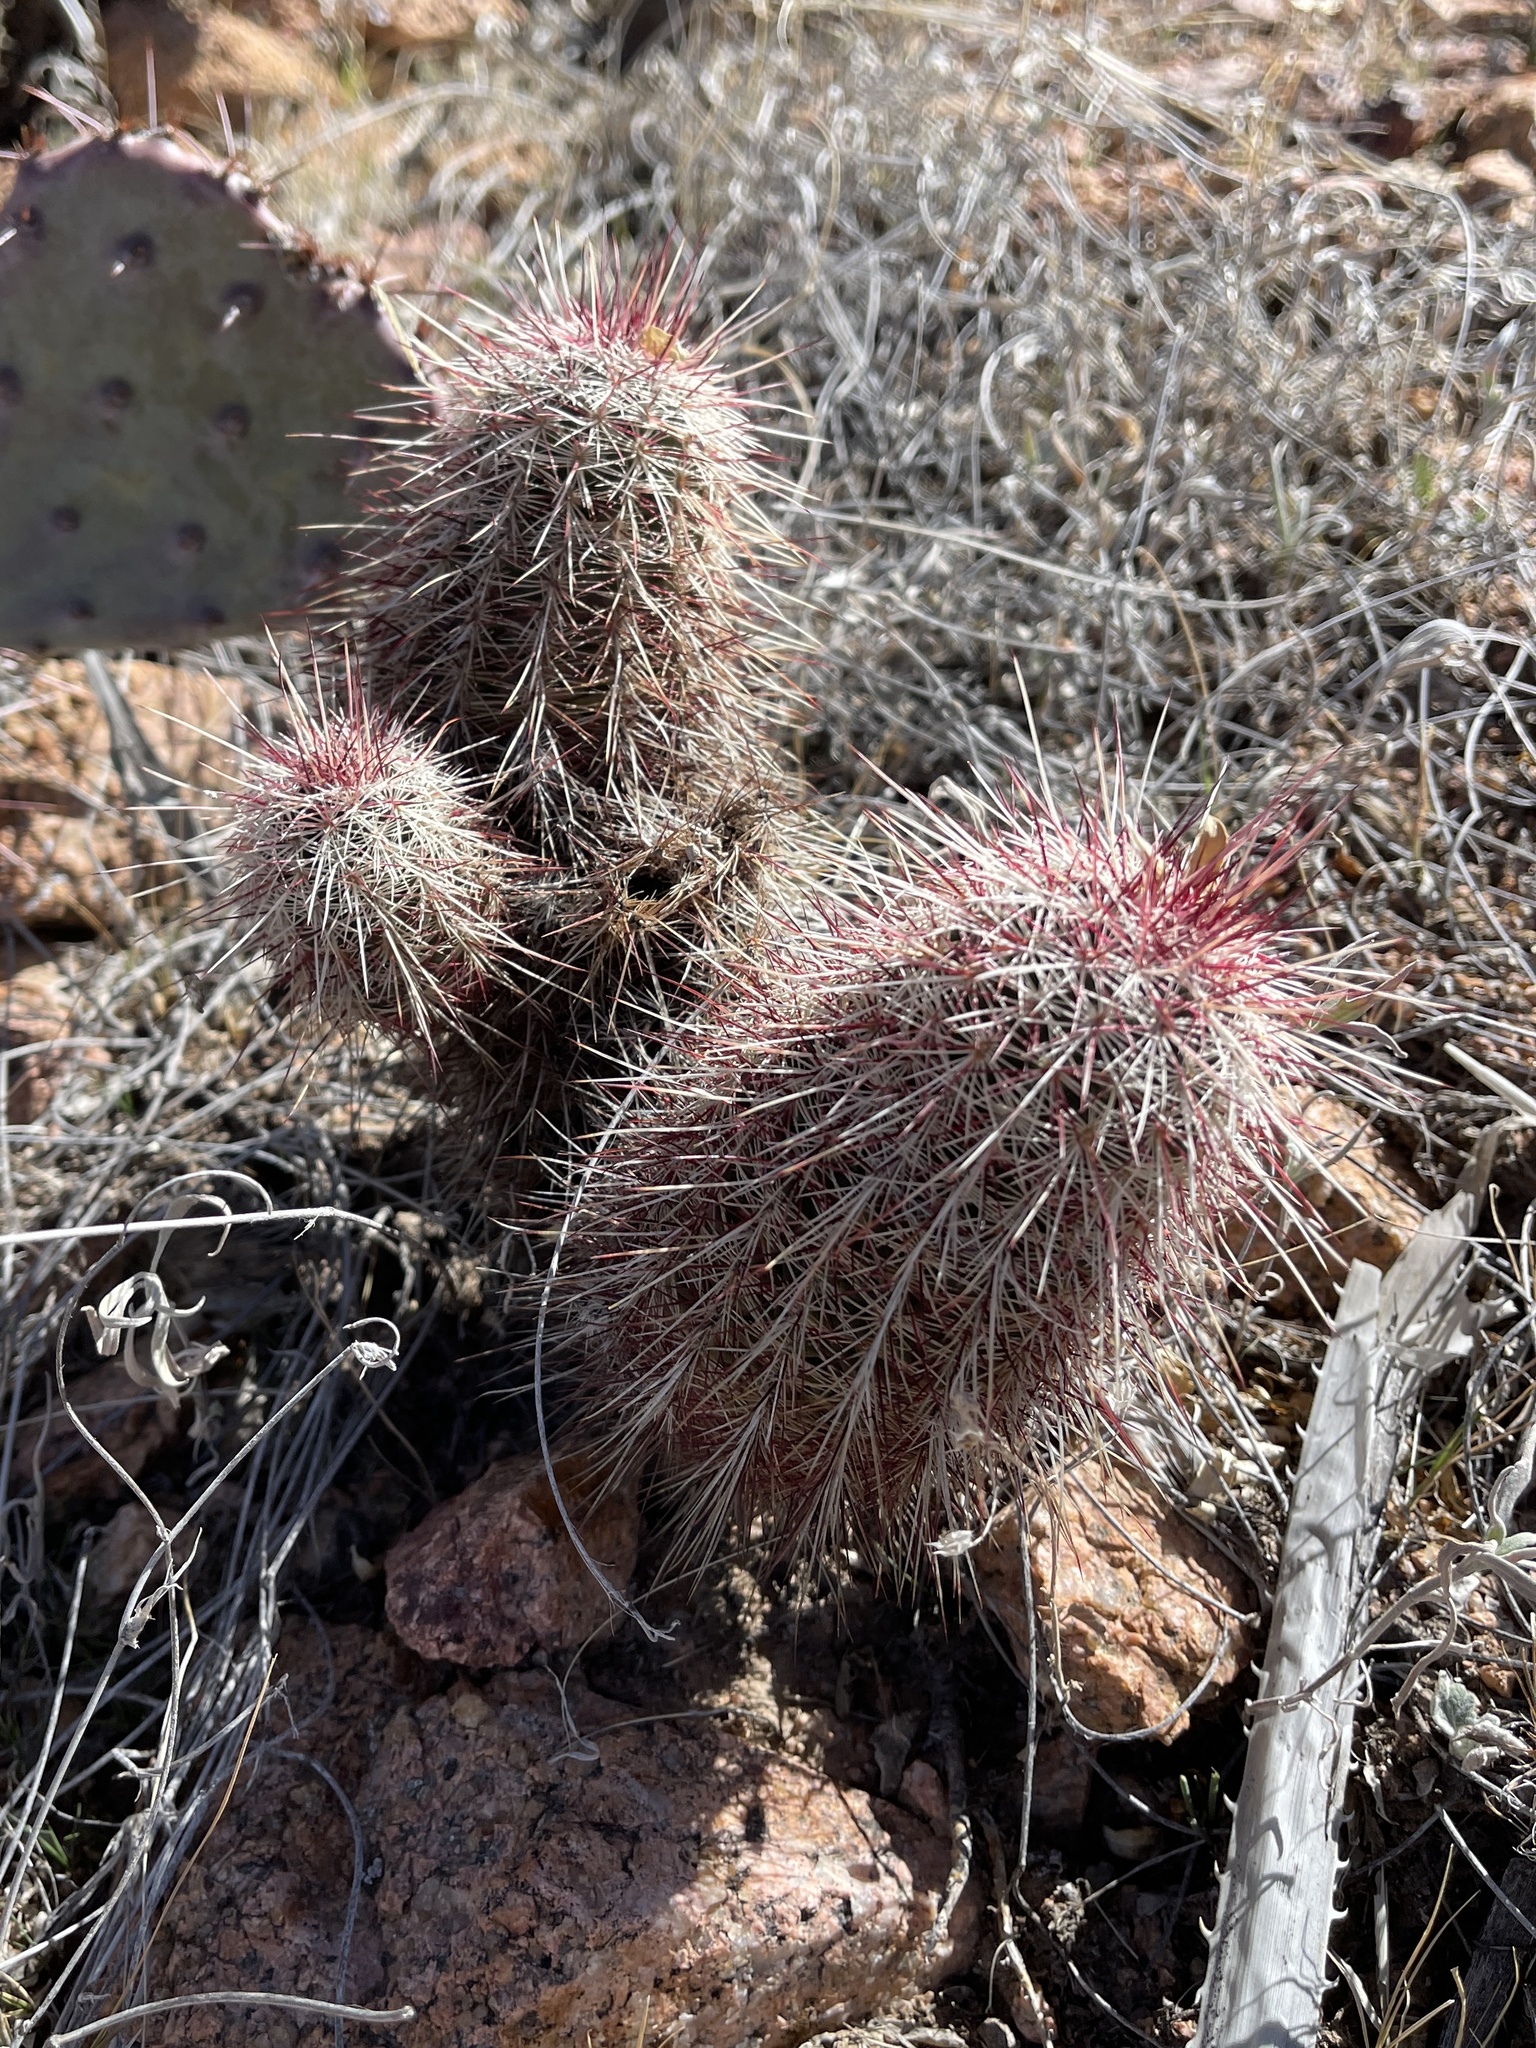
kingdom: Plantae
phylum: Tracheophyta
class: Magnoliopsida
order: Caryophyllales
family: Cactaceae
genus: Echinocereus
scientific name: Echinocereus viridiflorus
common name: Nylon hedgehog cactus
